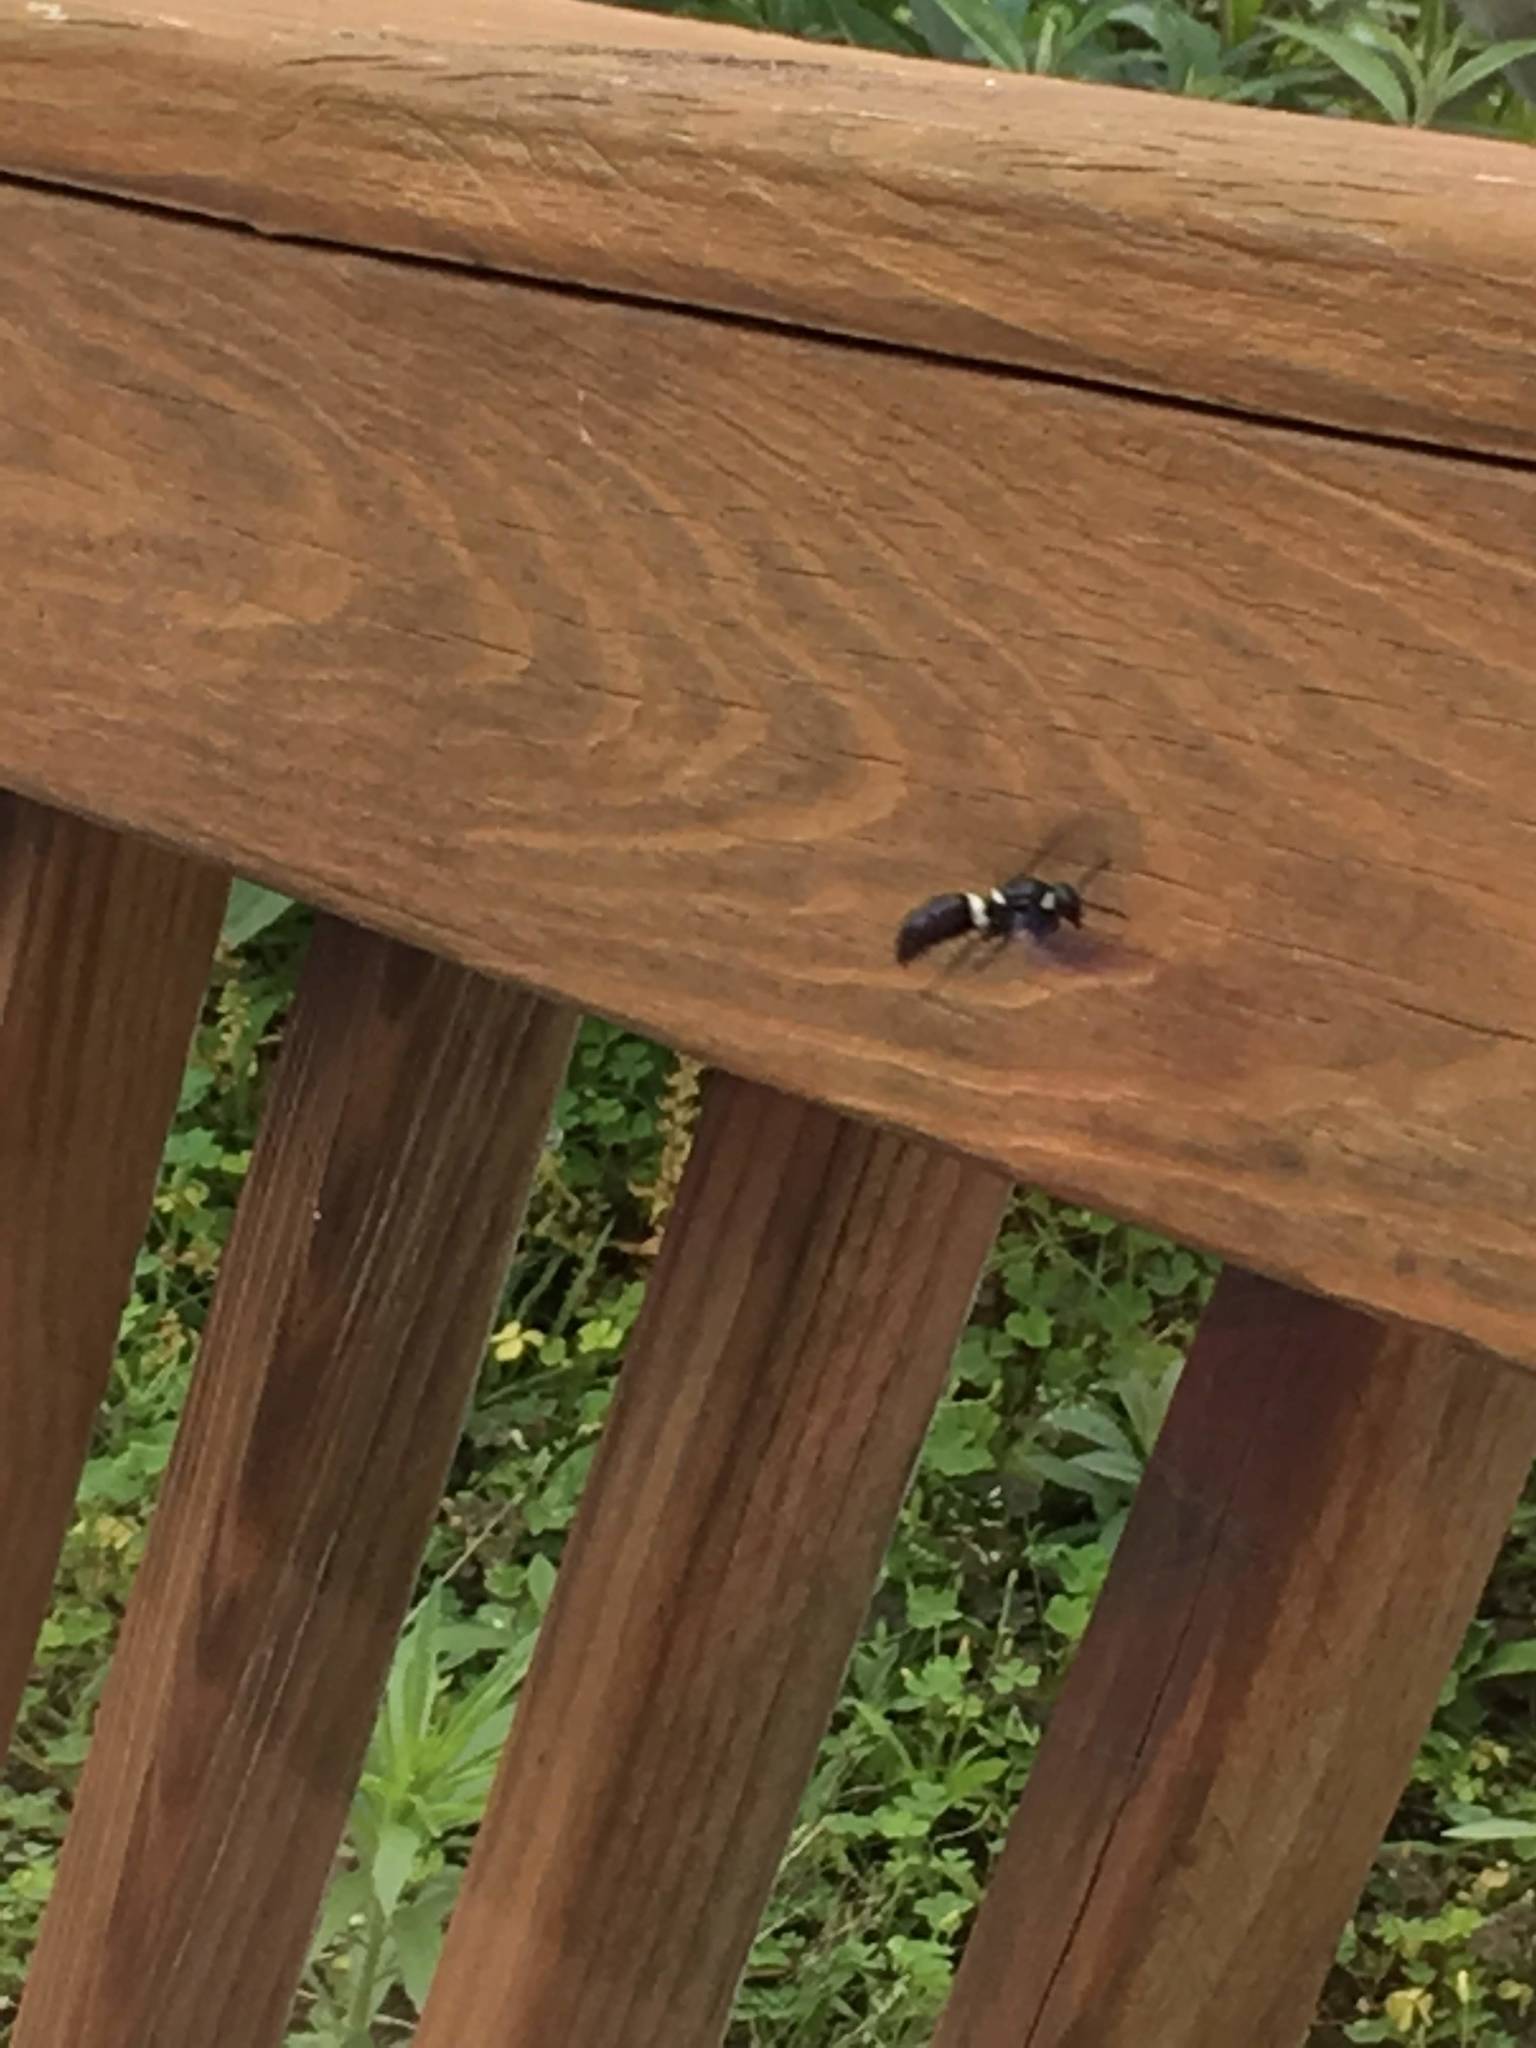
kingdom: Animalia
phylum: Arthropoda
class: Insecta
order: Hymenoptera
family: Eumenidae
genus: Monobia
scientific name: Monobia quadridens
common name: Four-toothed mason wasp
